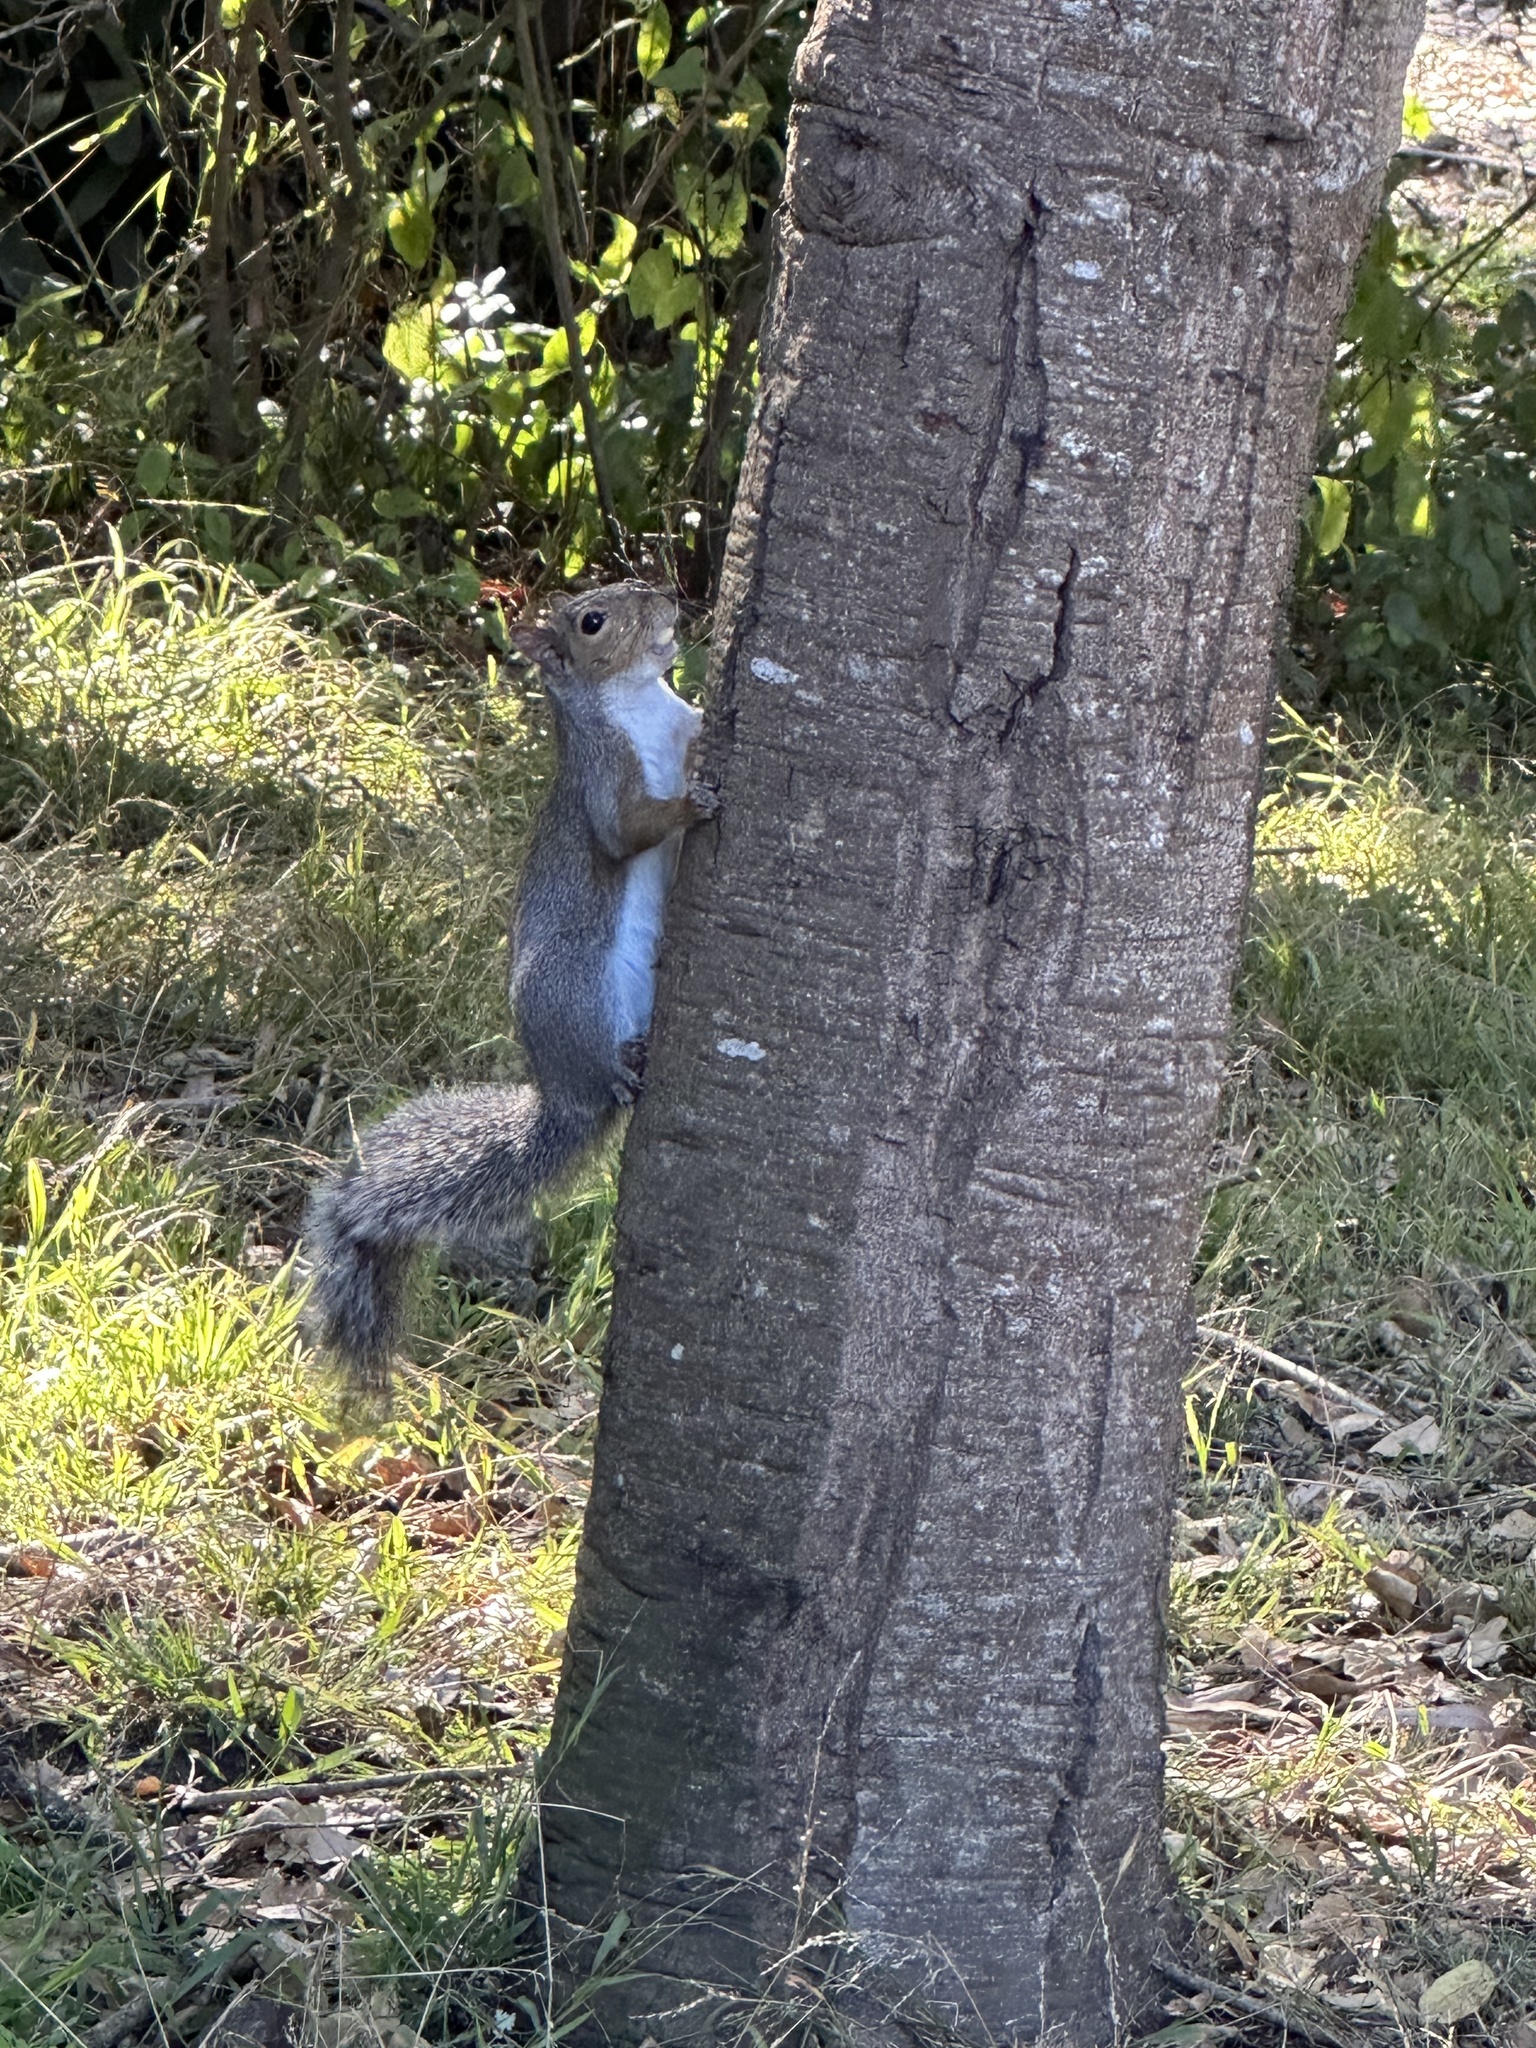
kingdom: Animalia
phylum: Chordata
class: Mammalia
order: Rodentia
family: Sciuridae
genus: Sciurus
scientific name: Sciurus carolinensis
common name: Eastern gray squirrel
